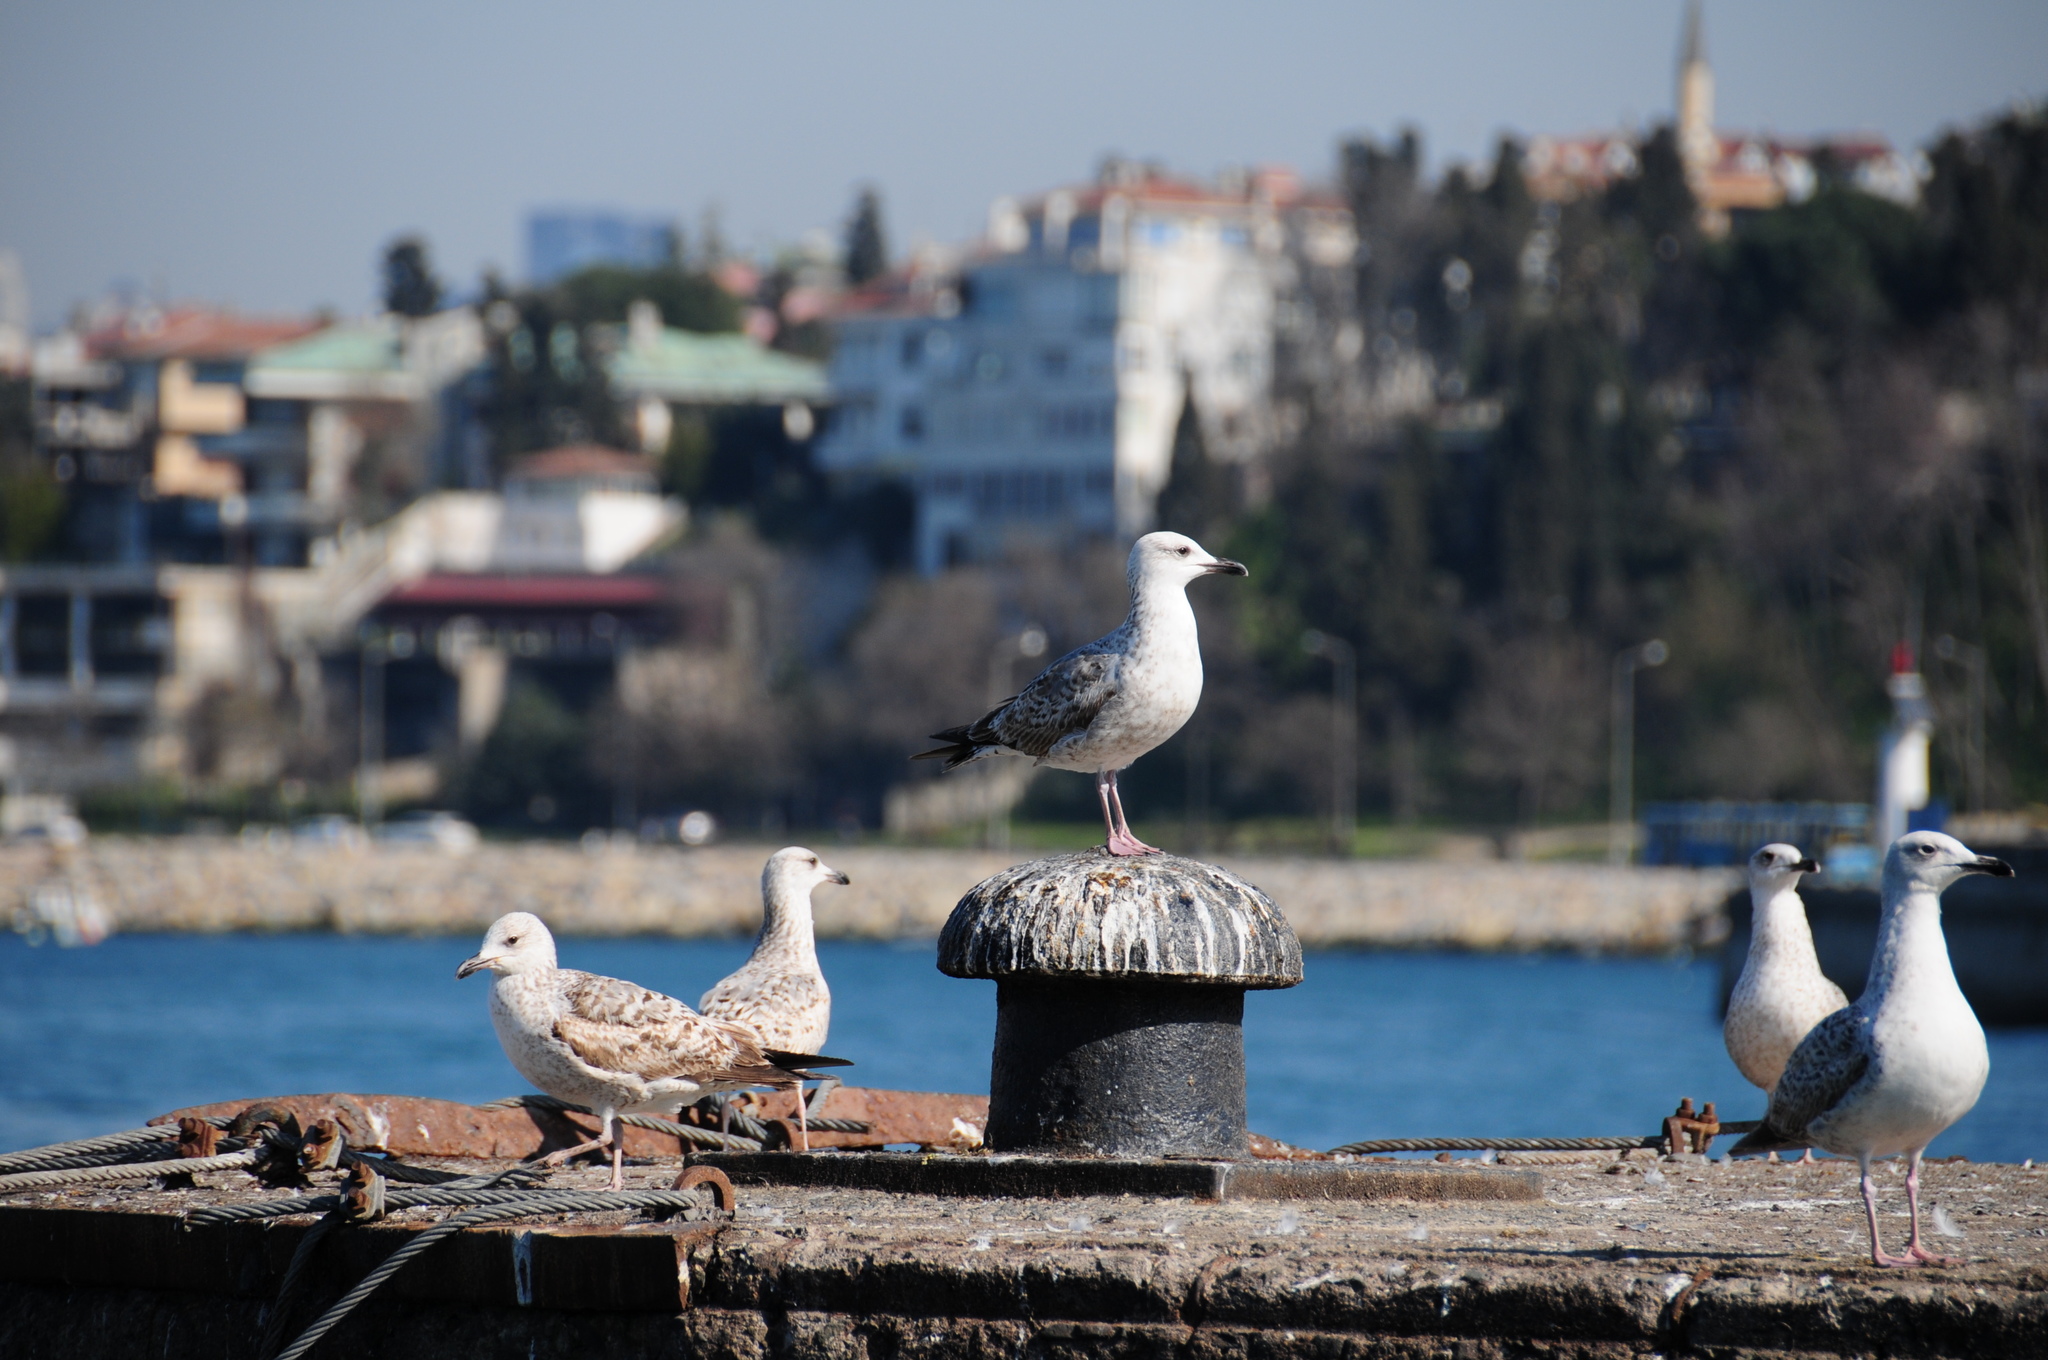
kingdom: Animalia
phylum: Chordata
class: Aves
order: Charadriiformes
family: Laridae
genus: Larus
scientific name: Larus cachinnans
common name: Caspian gull
